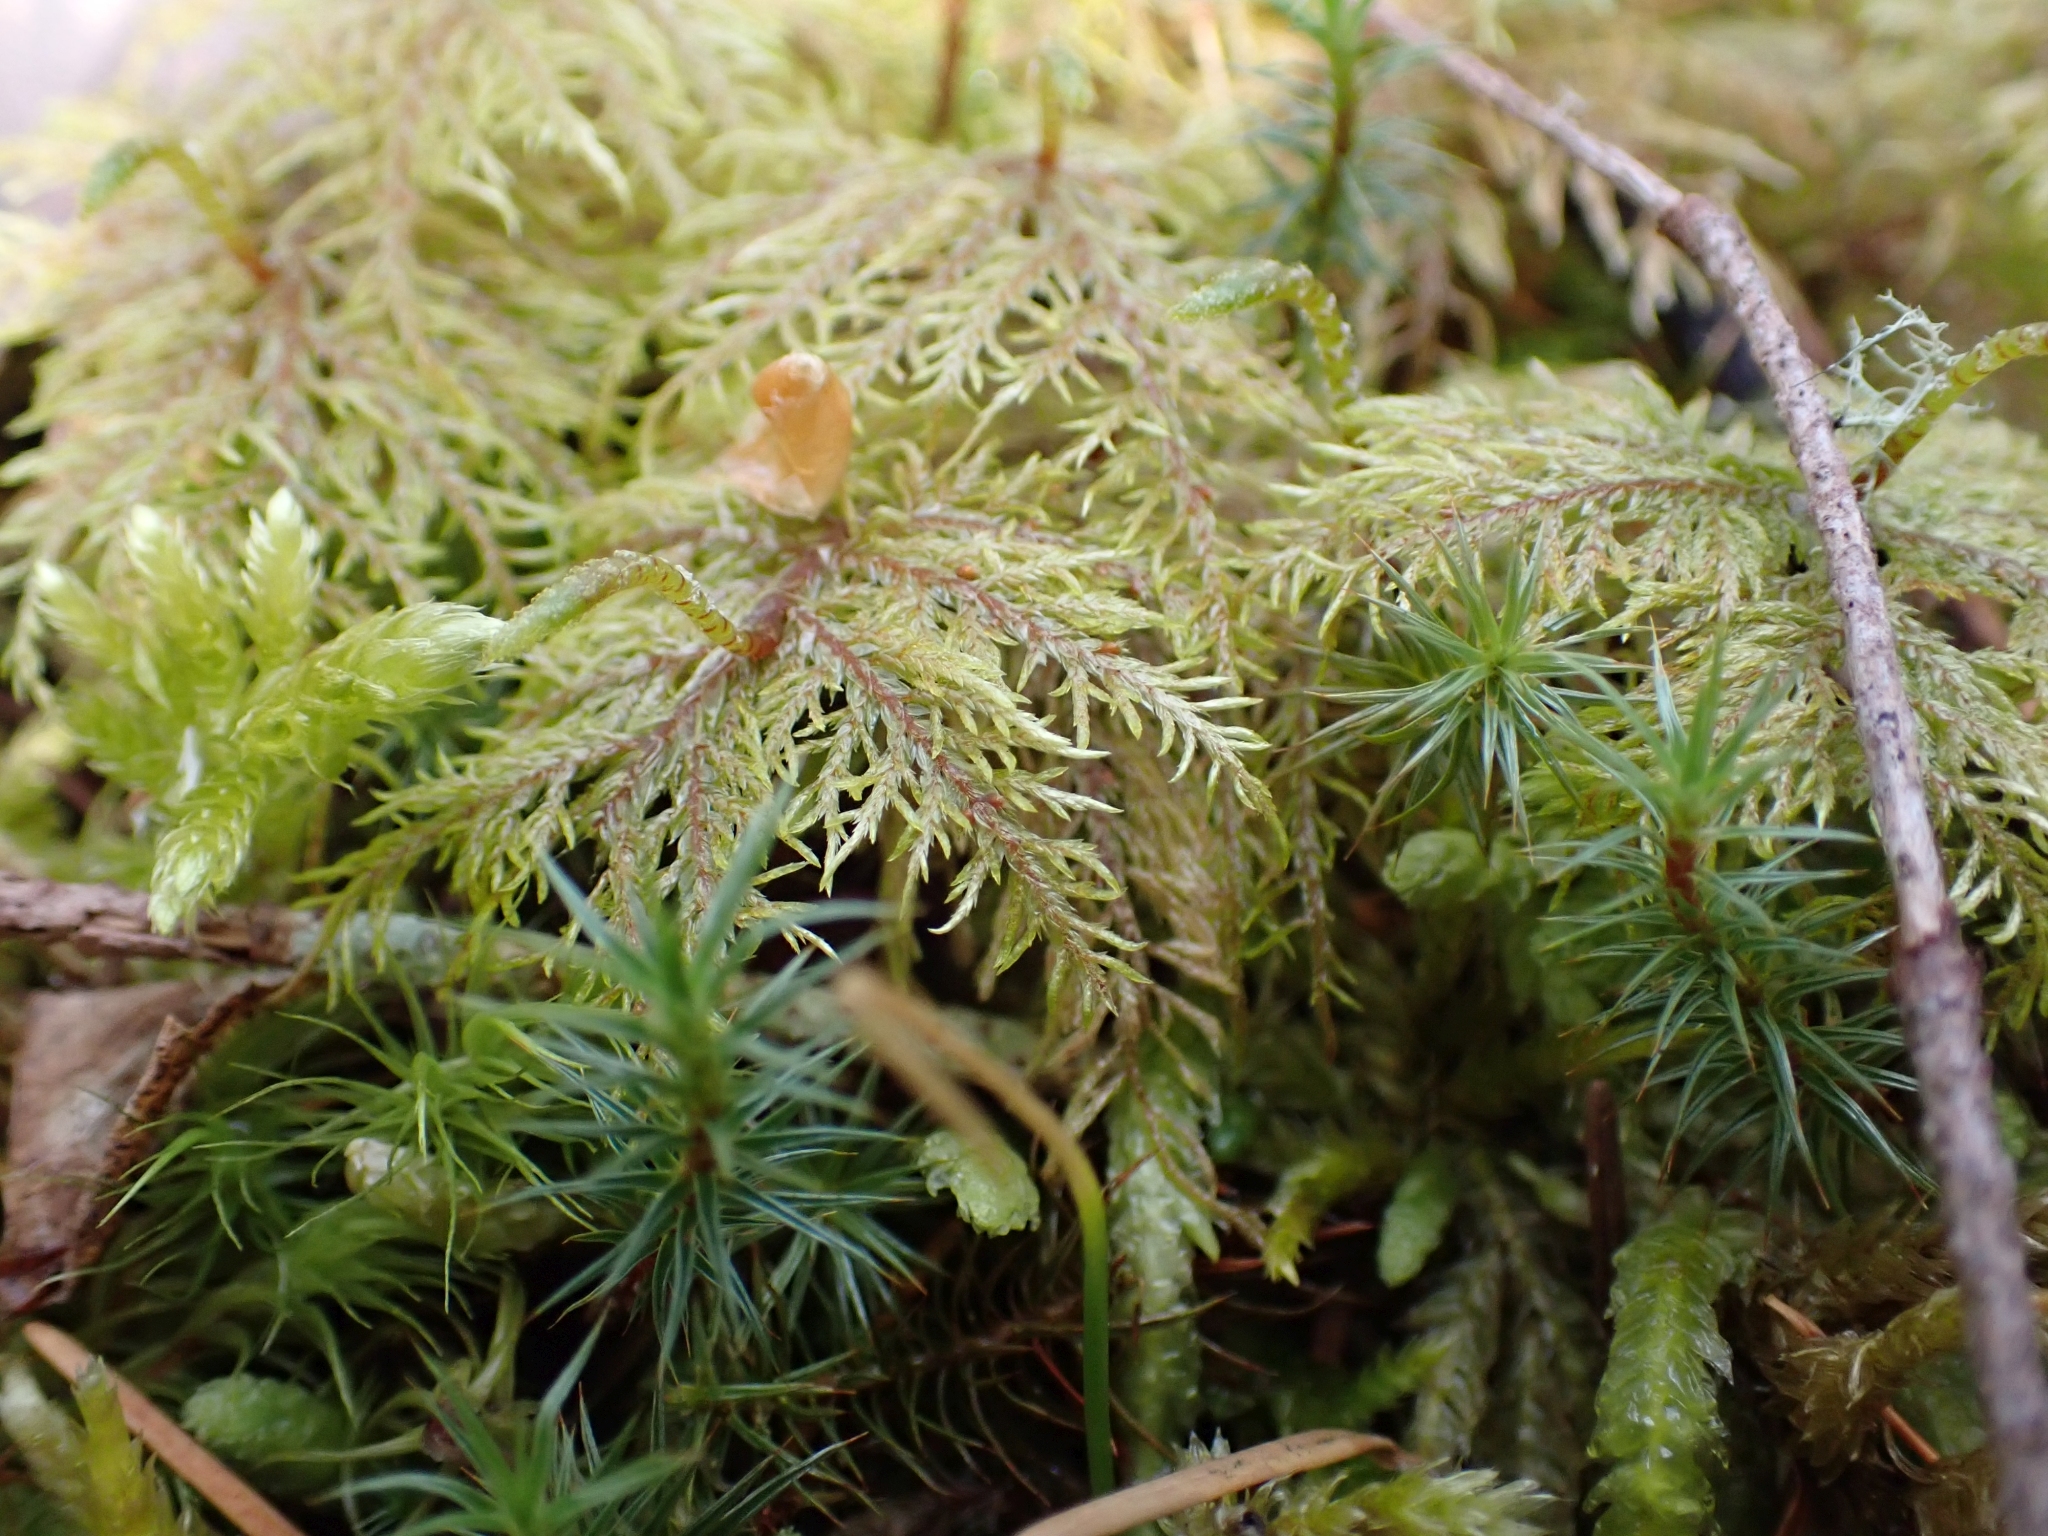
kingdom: Plantae
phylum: Bryophyta
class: Bryopsida
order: Hypnales
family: Hylocomiaceae
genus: Hylocomium
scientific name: Hylocomium splendens
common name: Stairstep moss
